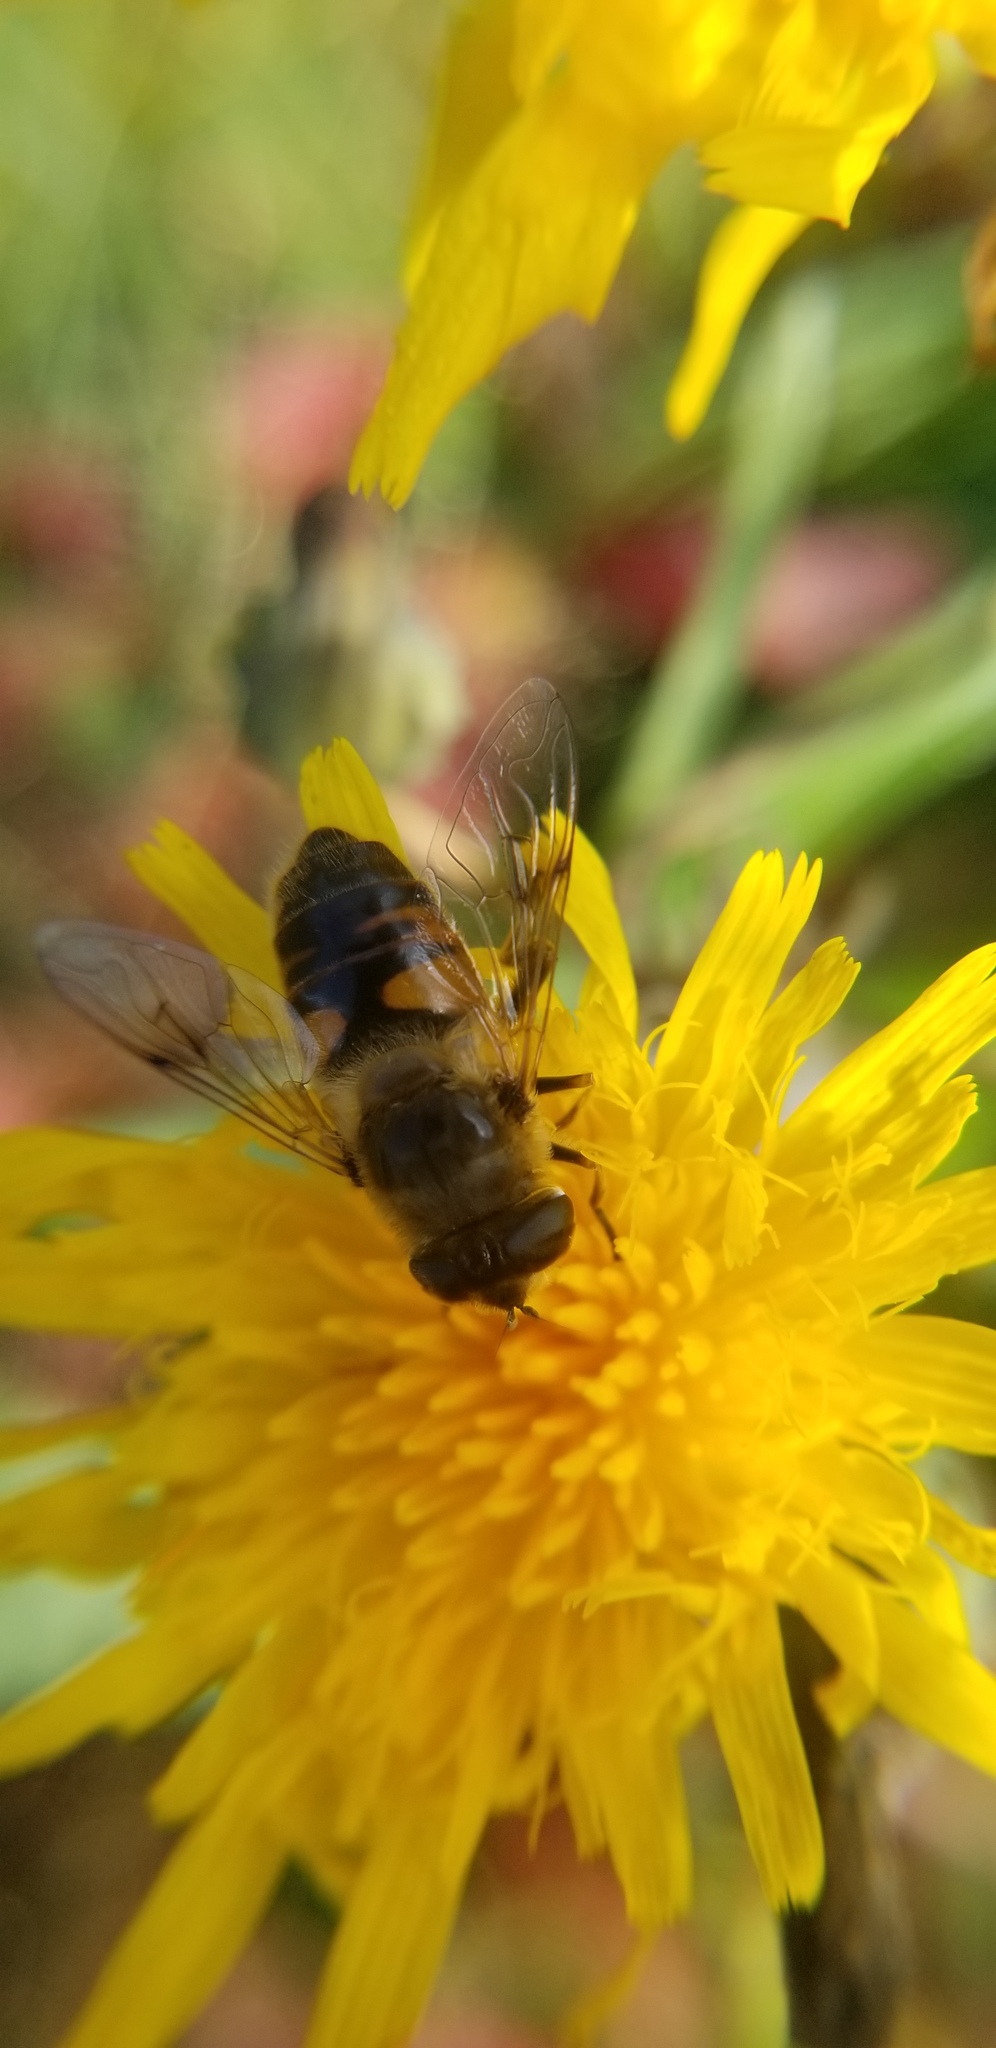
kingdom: Animalia
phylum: Arthropoda
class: Insecta
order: Diptera
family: Syrphidae
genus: Eristalis
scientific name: Eristalis tenax
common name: Drone fly
